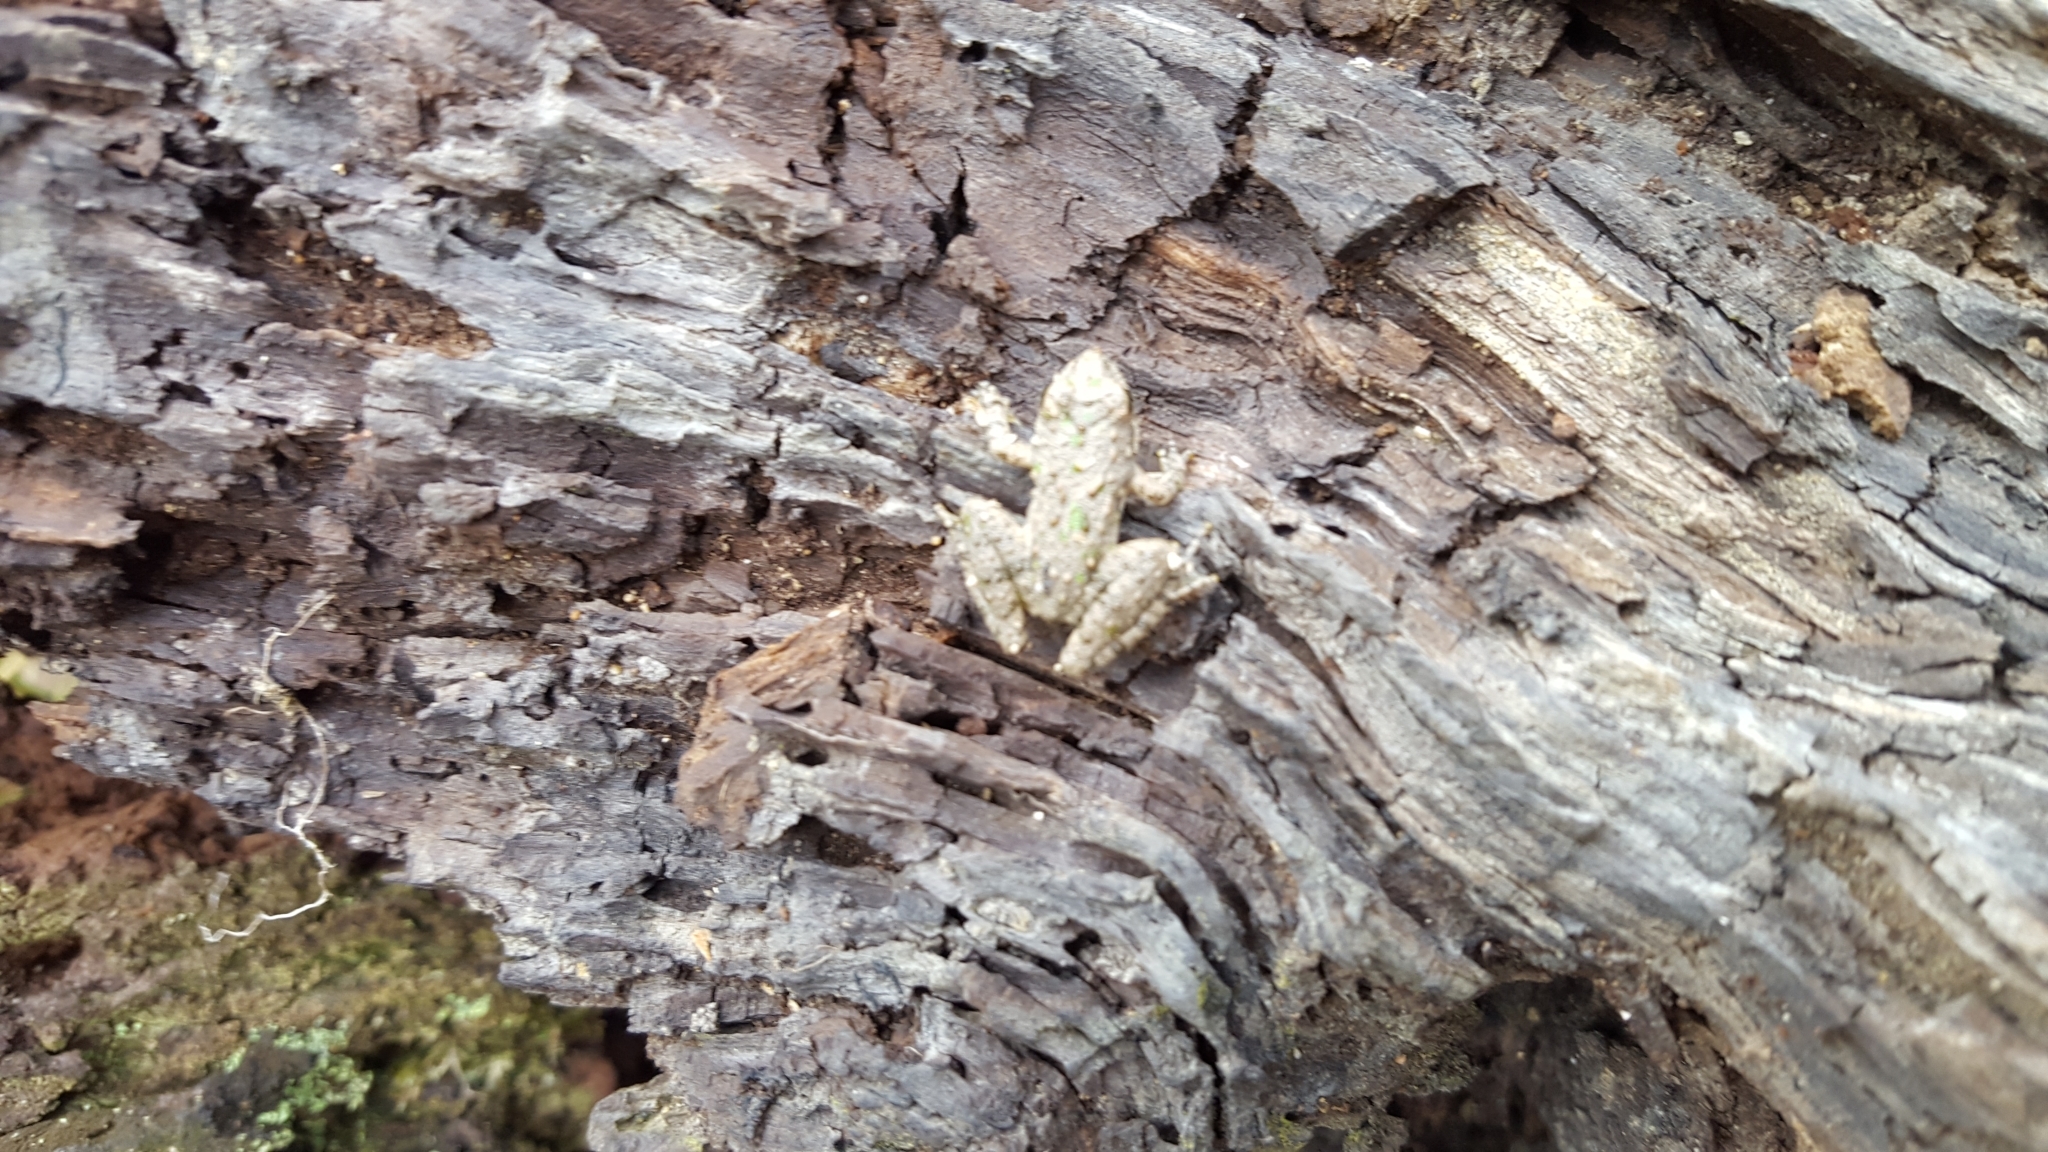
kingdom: Animalia
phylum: Chordata
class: Amphibia
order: Anura
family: Hylidae
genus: Acris
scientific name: Acris blanchardi
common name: Blanchard's cricket frog
